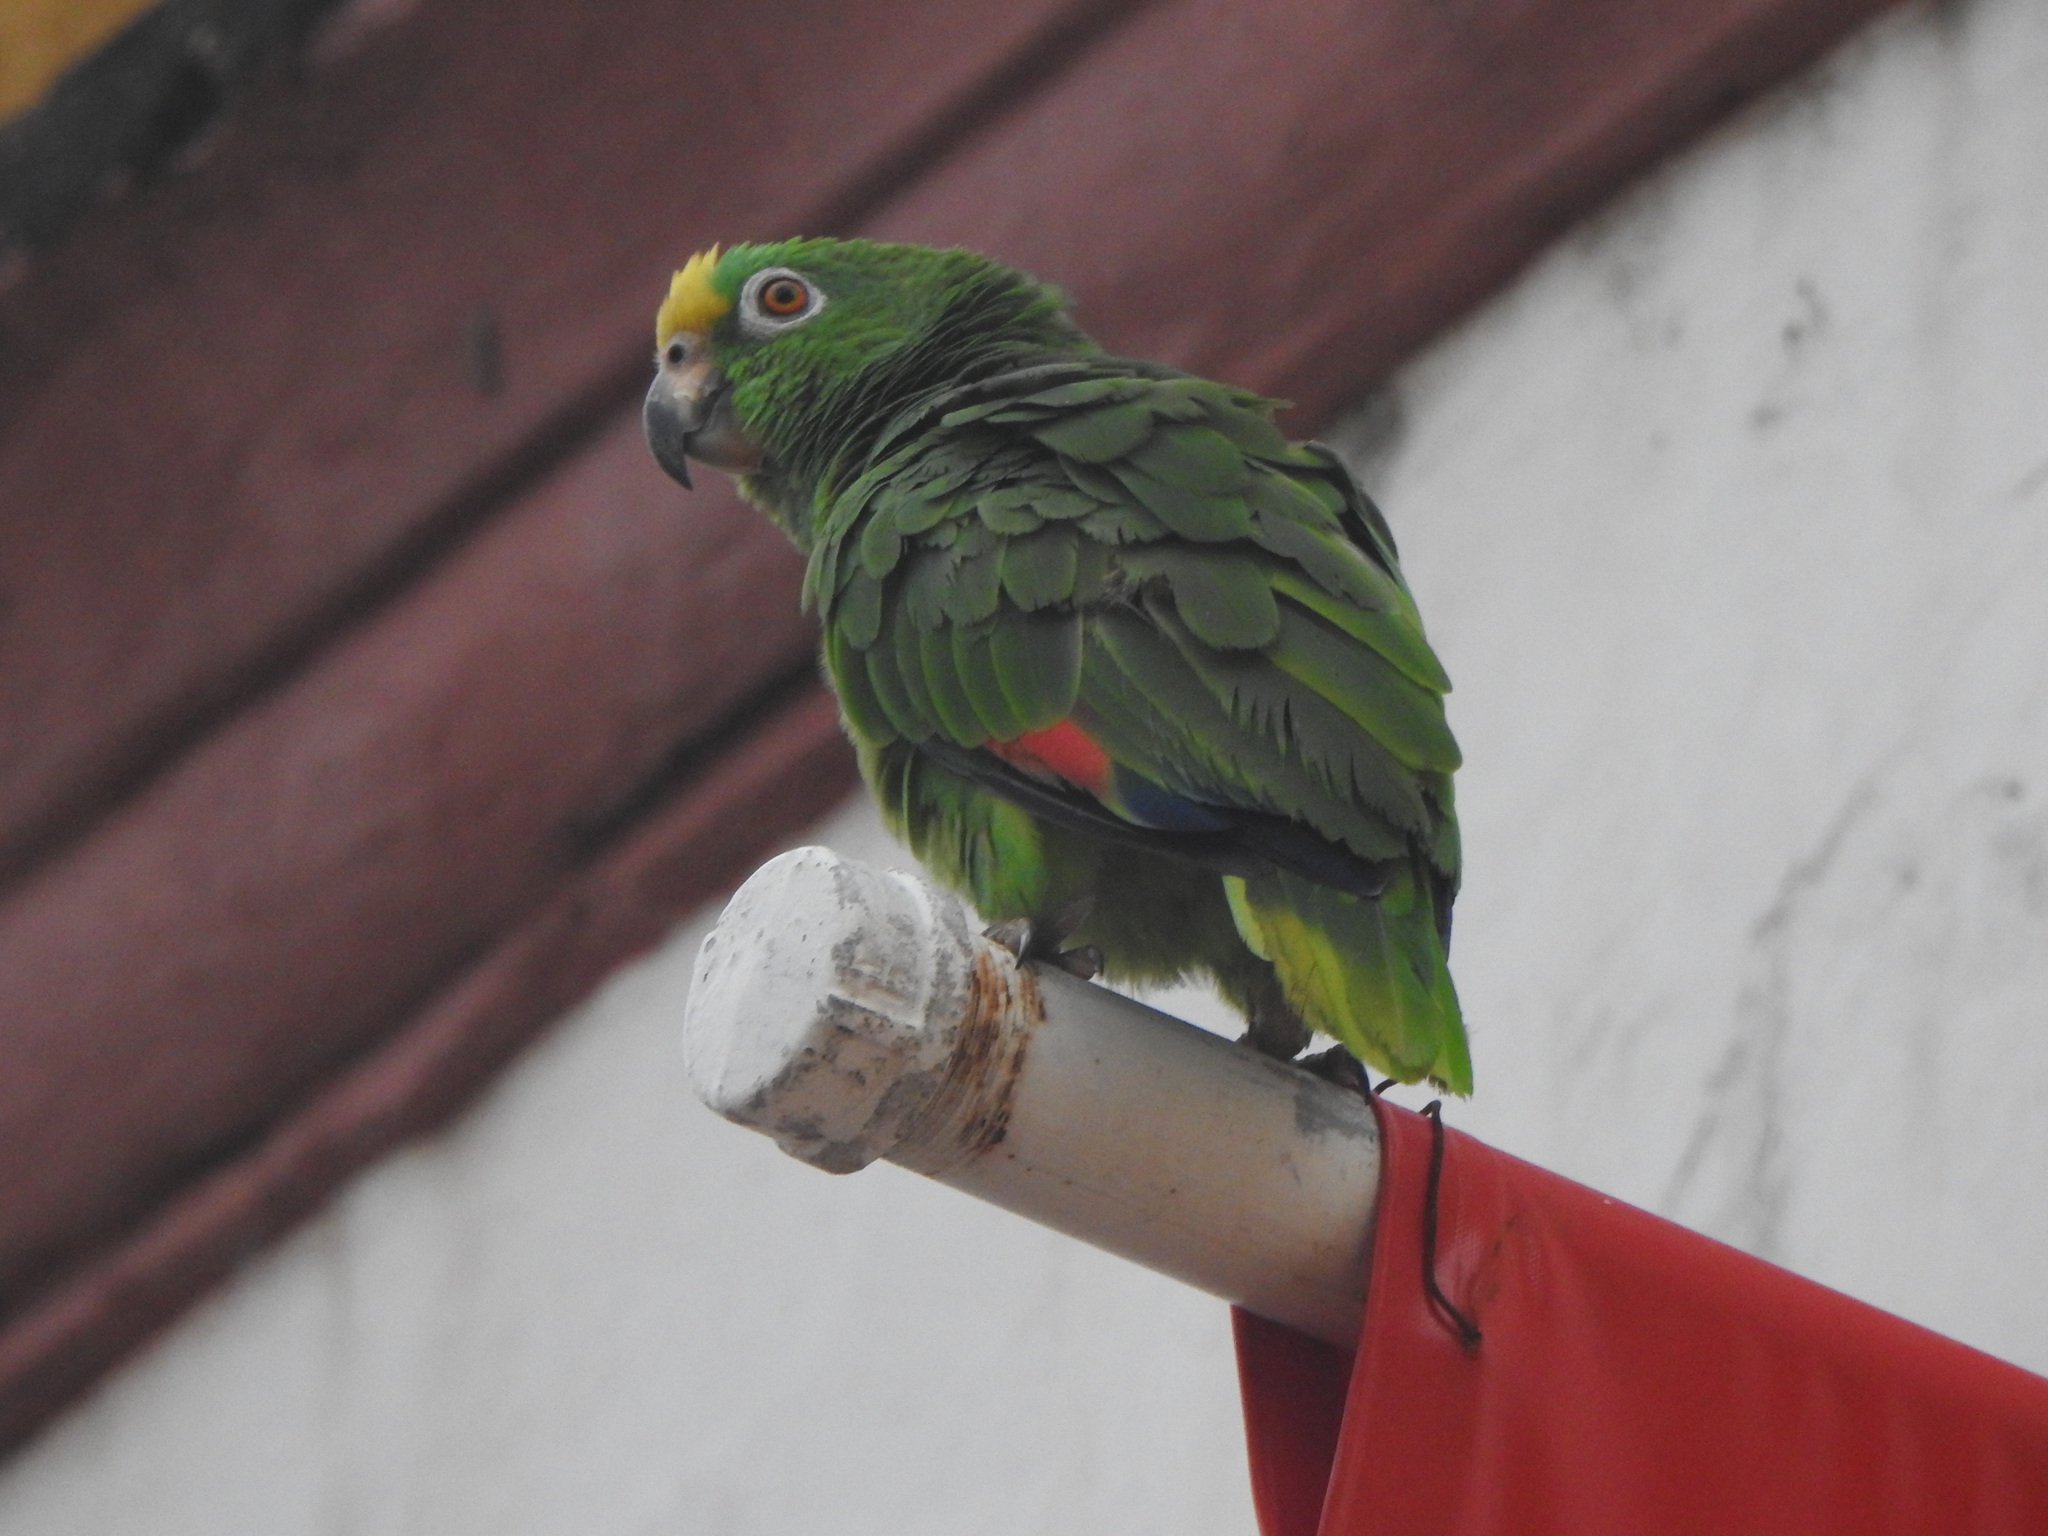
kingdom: Animalia
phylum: Chordata
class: Aves
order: Psittaciformes
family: Psittacidae
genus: Amazona
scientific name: Amazona ochrocephala
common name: Yellow-crowned amazon
